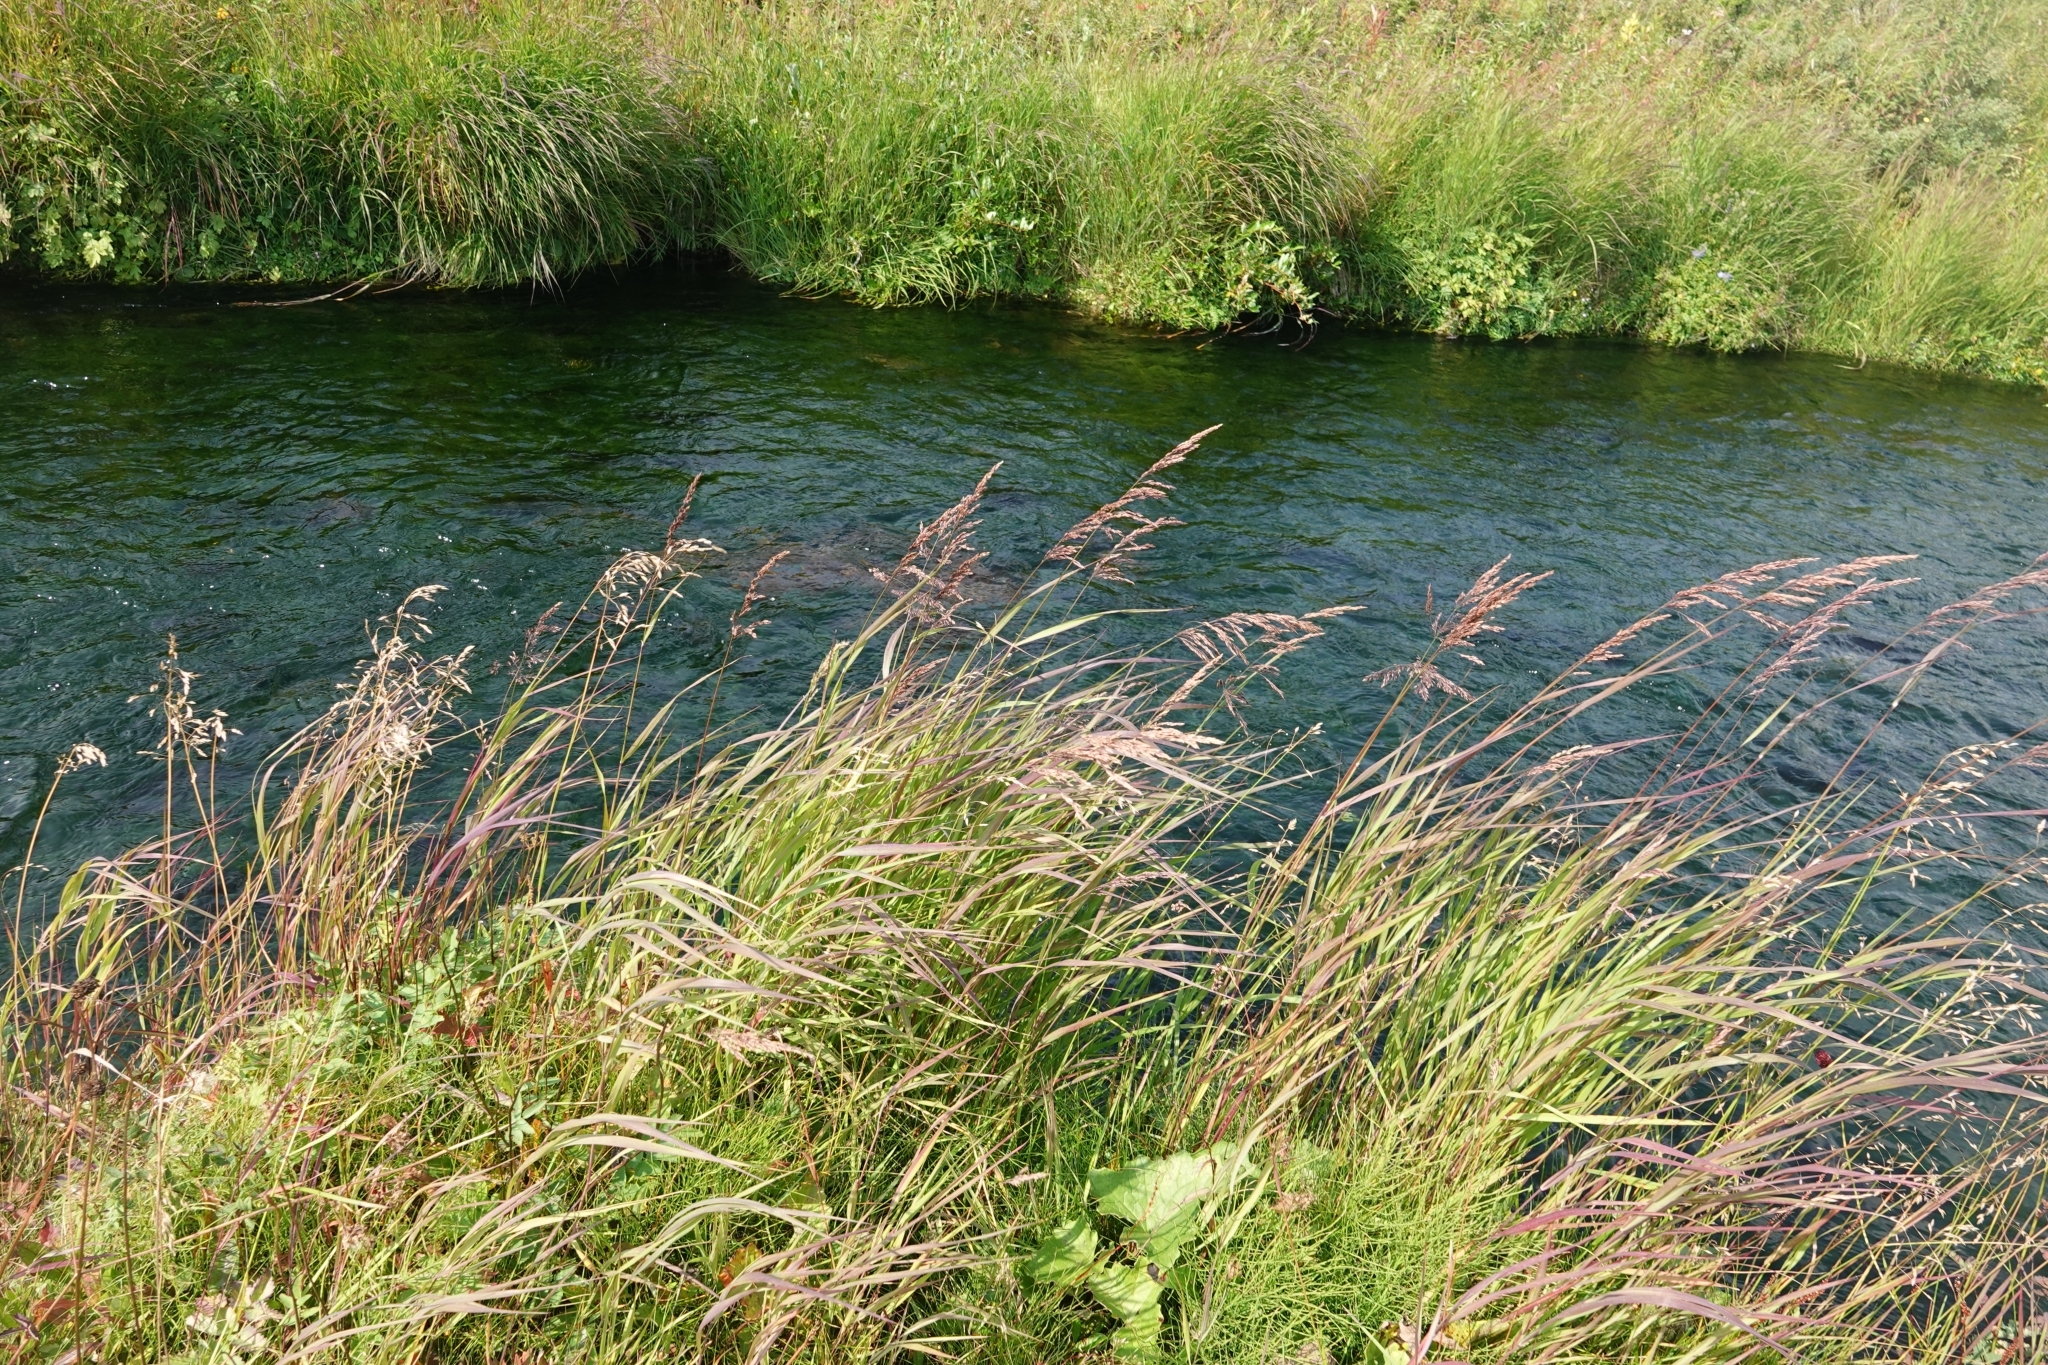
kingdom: Plantae
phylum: Tracheophyta
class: Liliopsida
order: Poales
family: Poaceae
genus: Calamagrostis
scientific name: Calamagrostis sesquiflora
